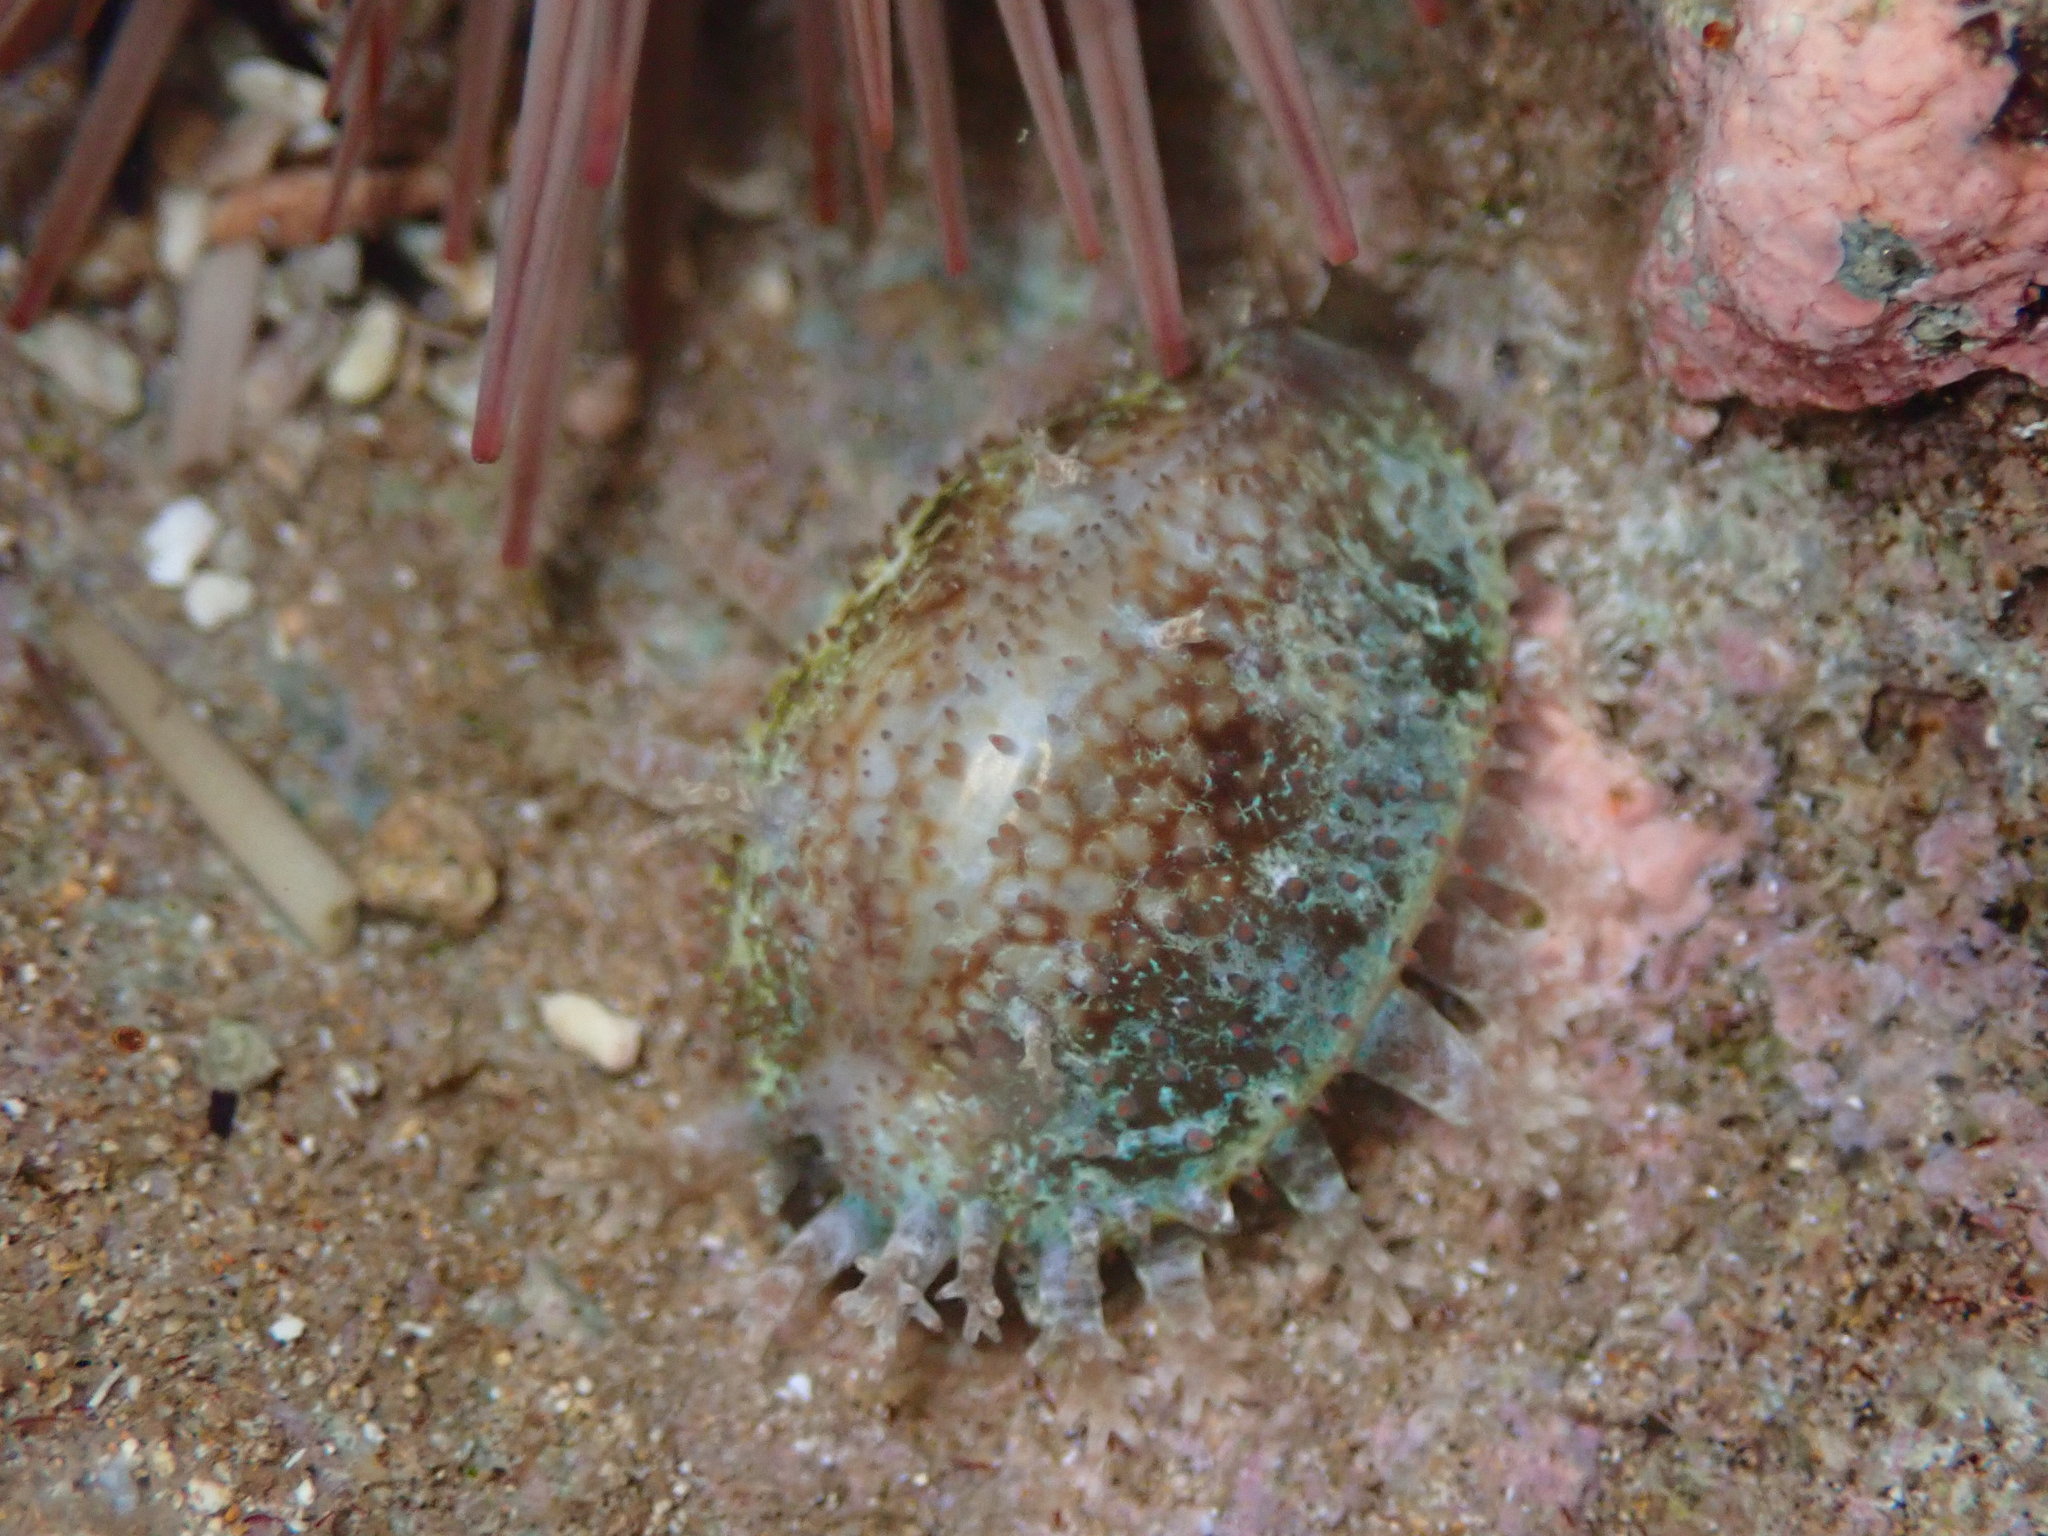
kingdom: Animalia
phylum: Mollusca
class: Gastropoda
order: Littorinimorpha
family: Cypraeidae
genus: Monetaria
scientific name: Monetaria caputophidii
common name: Snake's head cowry
